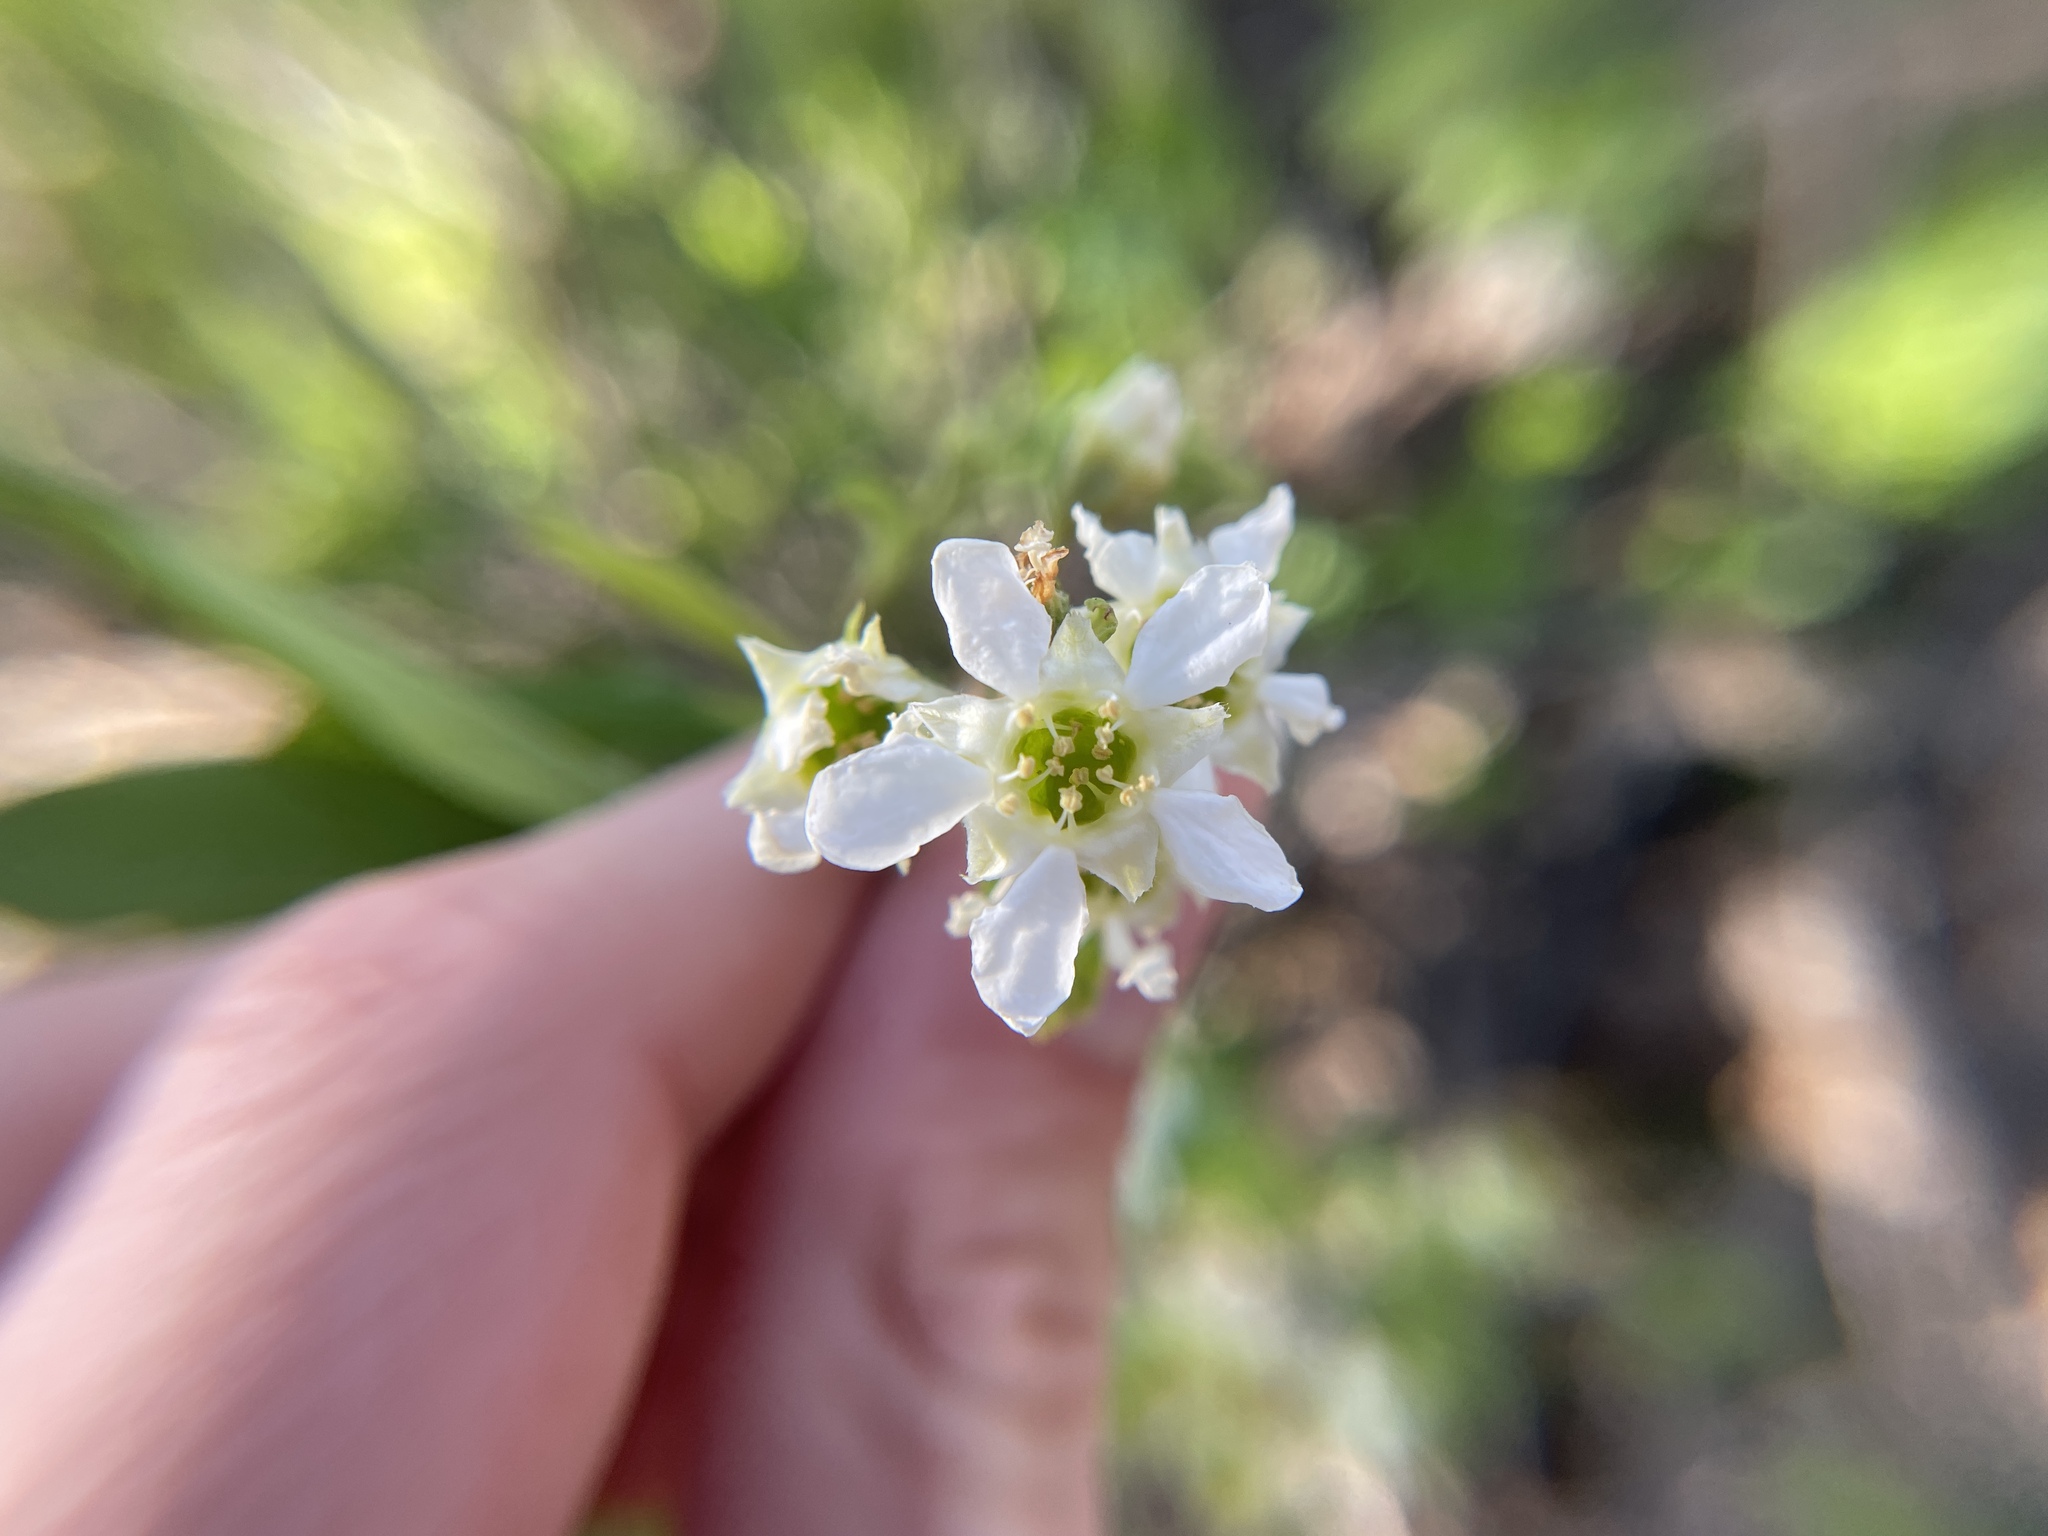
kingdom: Plantae
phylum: Tracheophyta
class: Magnoliopsida
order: Rosales
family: Rosaceae
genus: Oemleria
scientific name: Oemleria cerasiformis
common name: Osoberry
